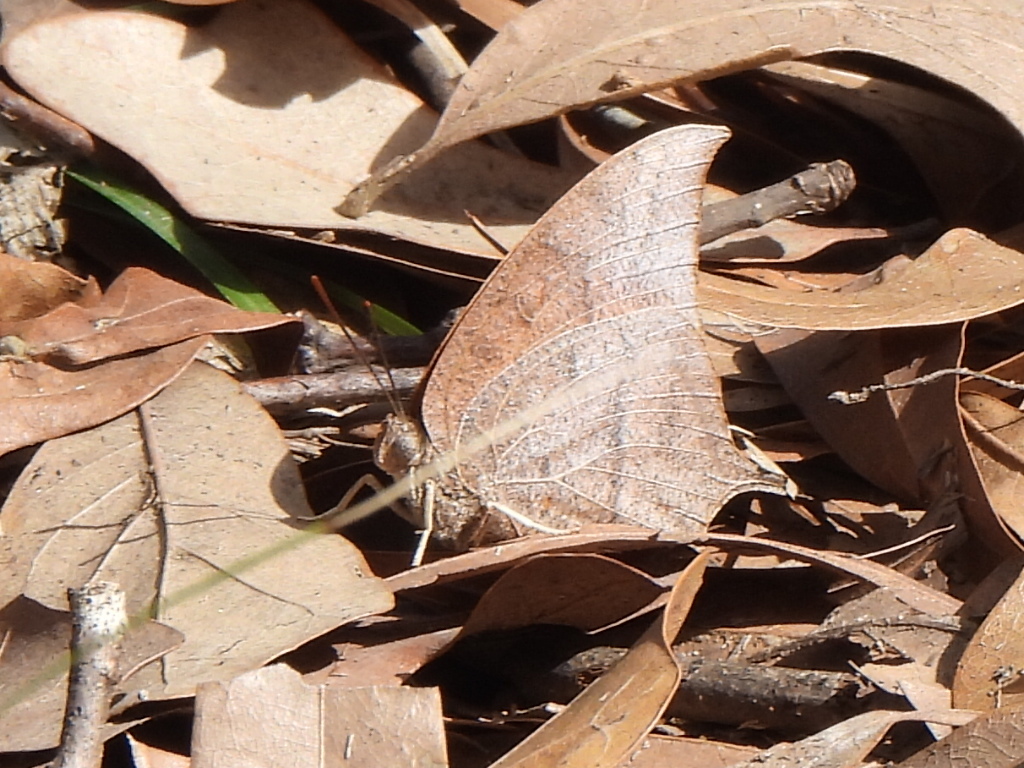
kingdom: Animalia
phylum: Arthropoda
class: Insecta
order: Lepidoptera
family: Nymphalidae
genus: Anaea
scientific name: Anaea andria
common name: Goatweed leafwing
